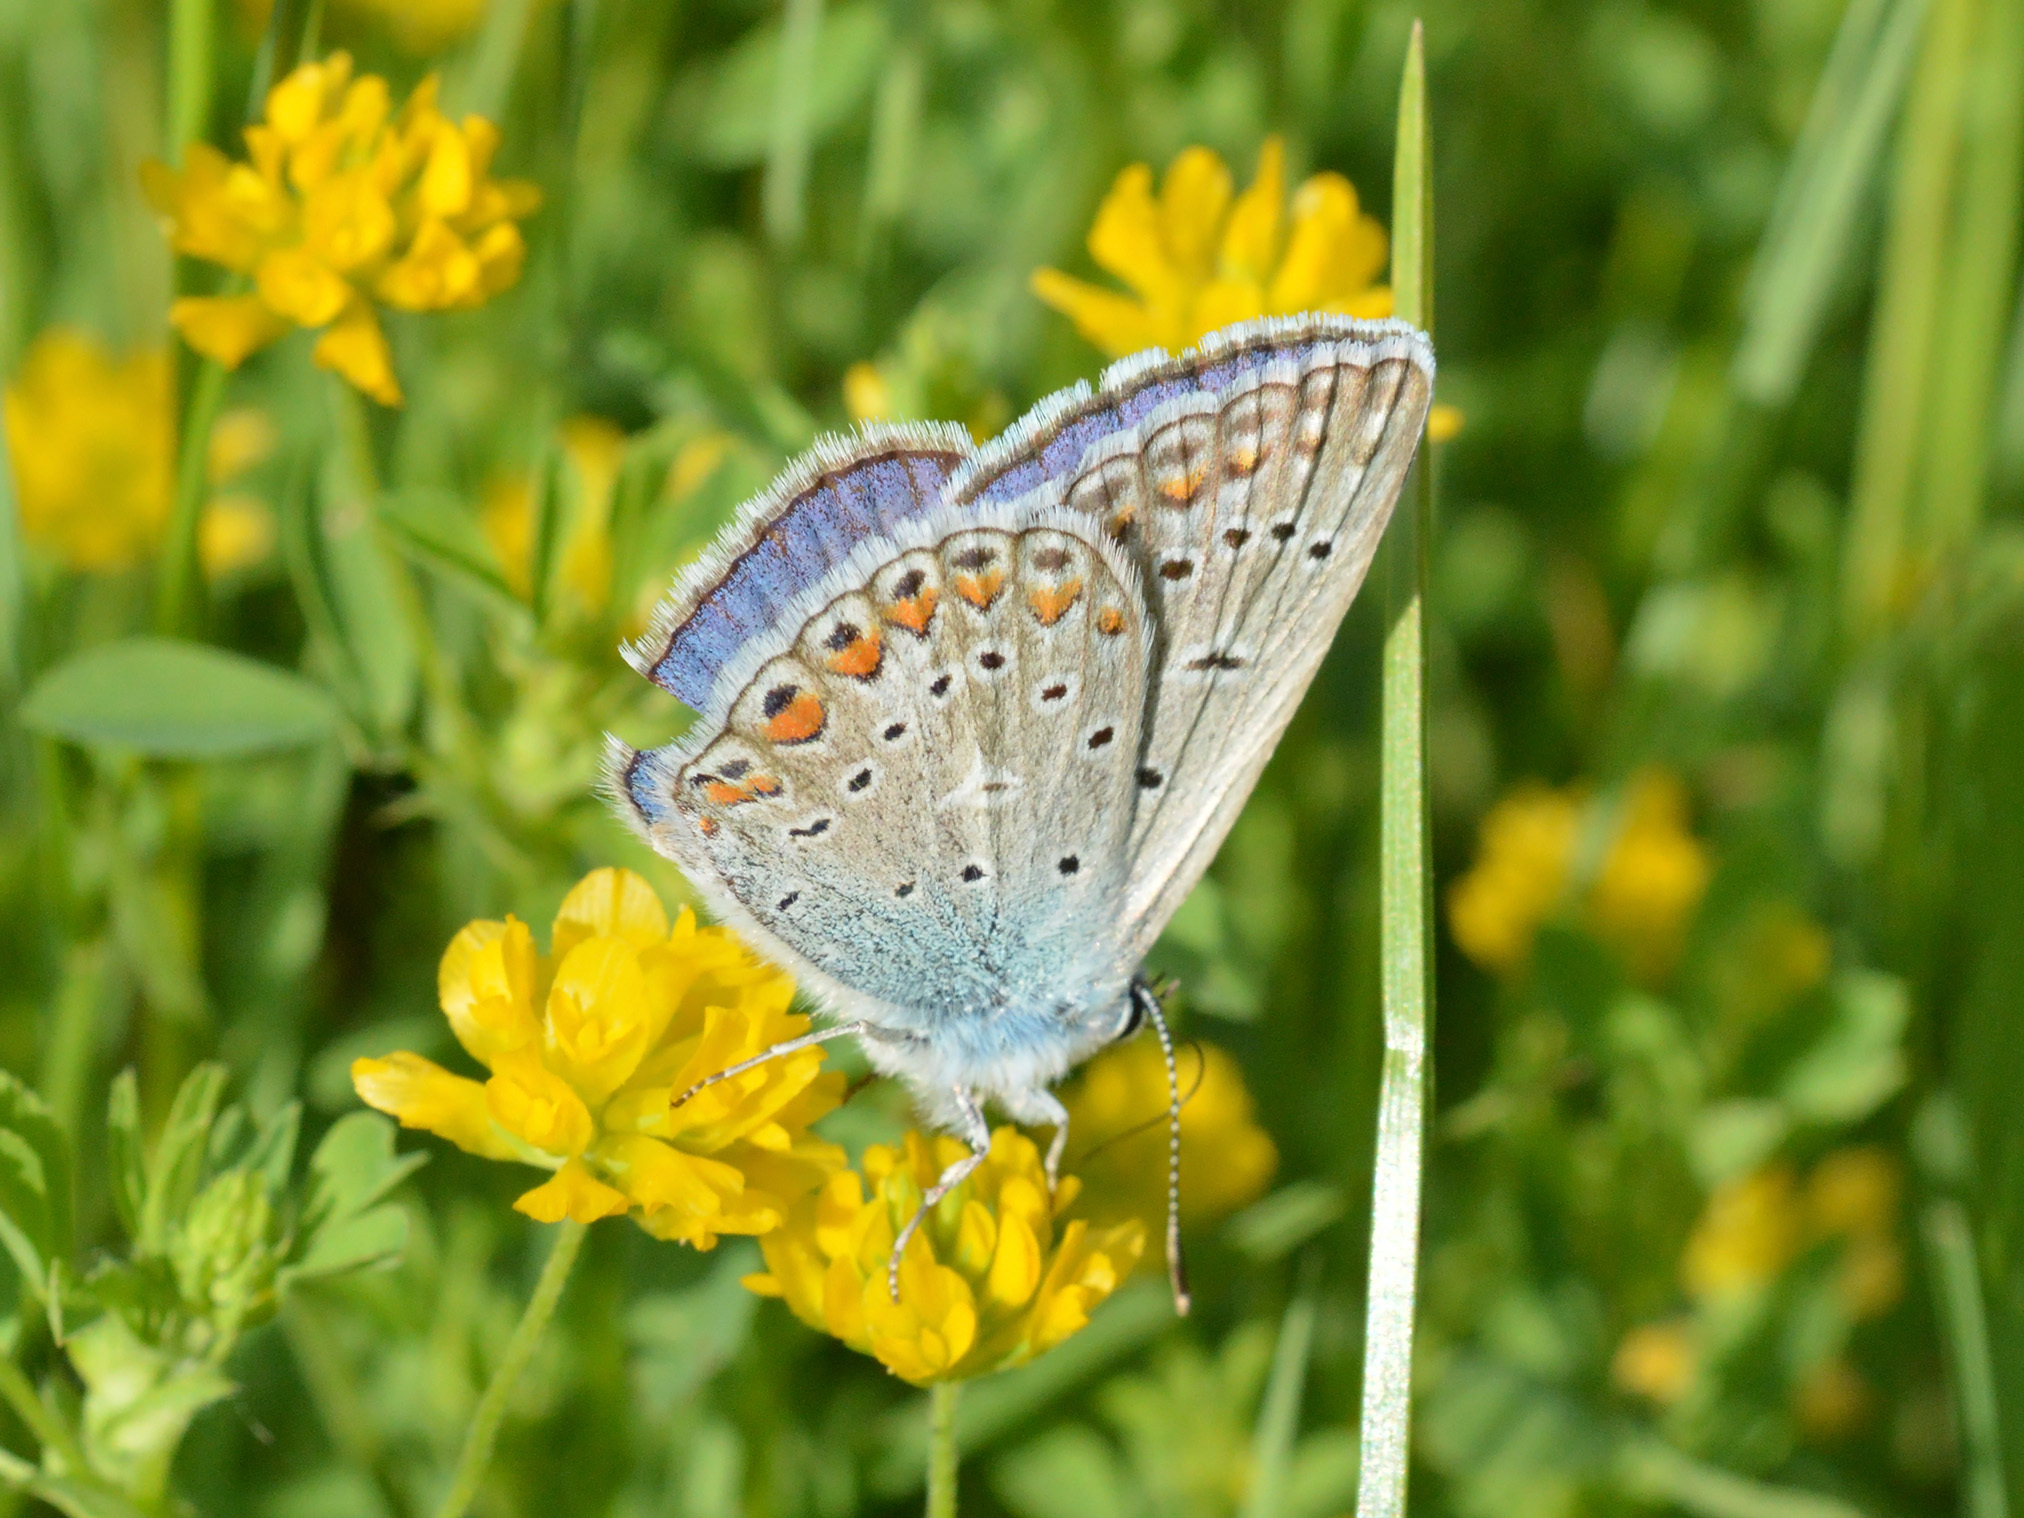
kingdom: Animalia
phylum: Arthropoda
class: Insecta
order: Lepidoptera
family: Lycaenidae
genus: Polyommatus
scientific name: Polyommatus icarus
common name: Common blue
